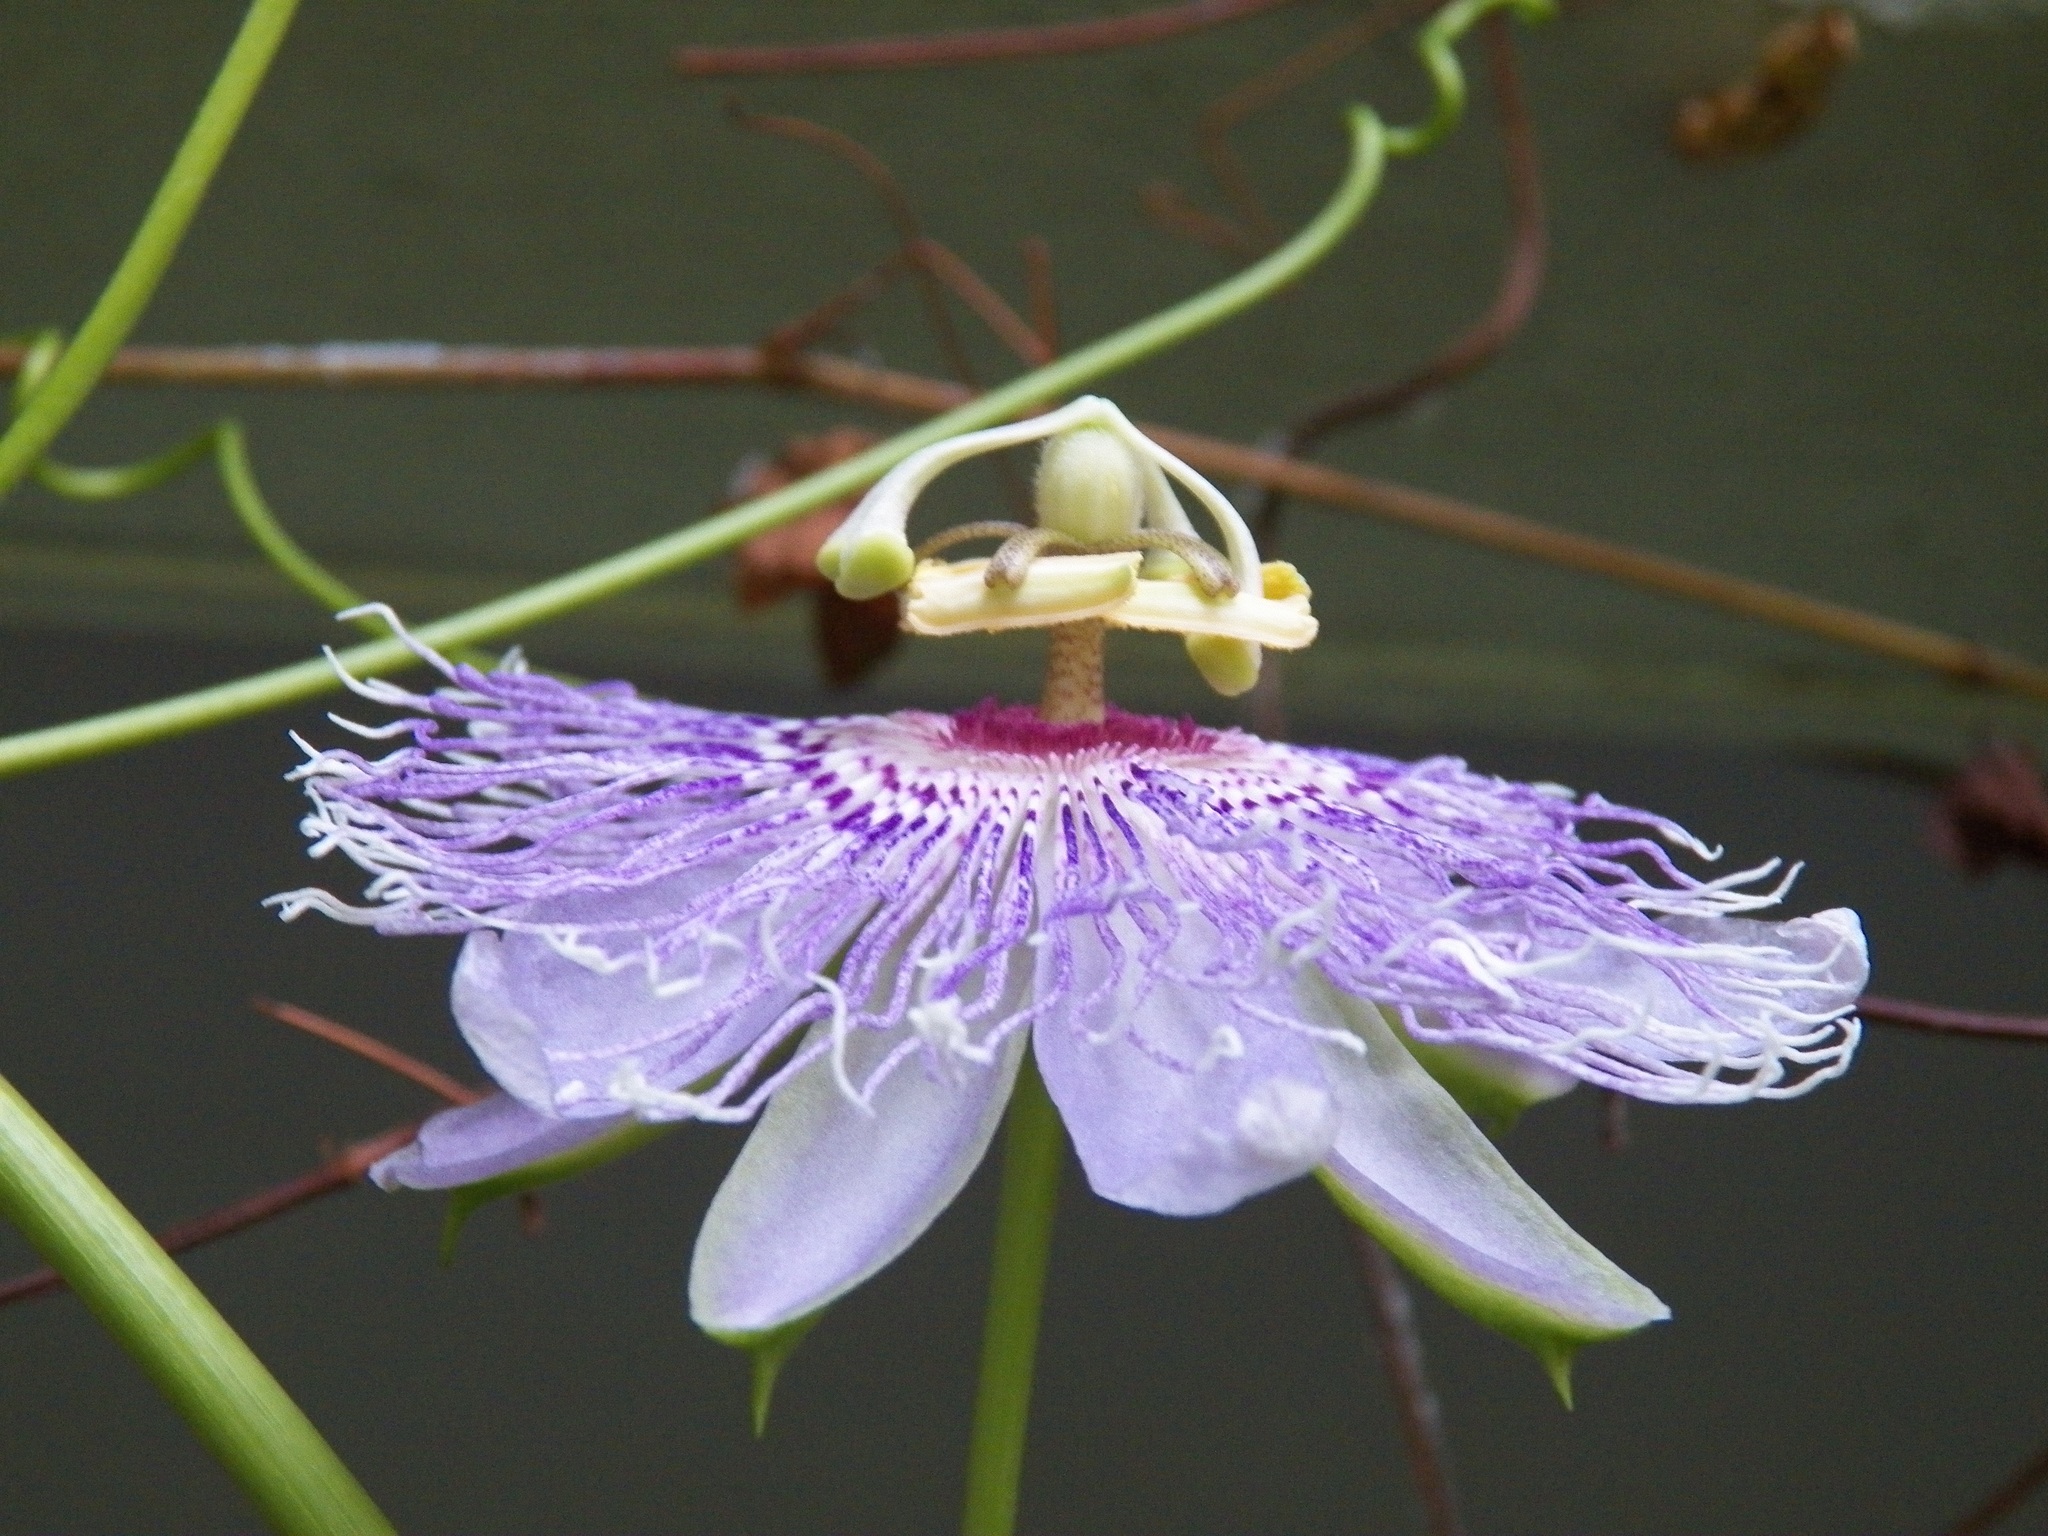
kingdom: Plantae
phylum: Tracheophyta
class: Magnoliopsida
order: Malpighiales
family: Passifloraceae
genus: Passiflora
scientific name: Passiflora incarnata
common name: Apricot-vine
